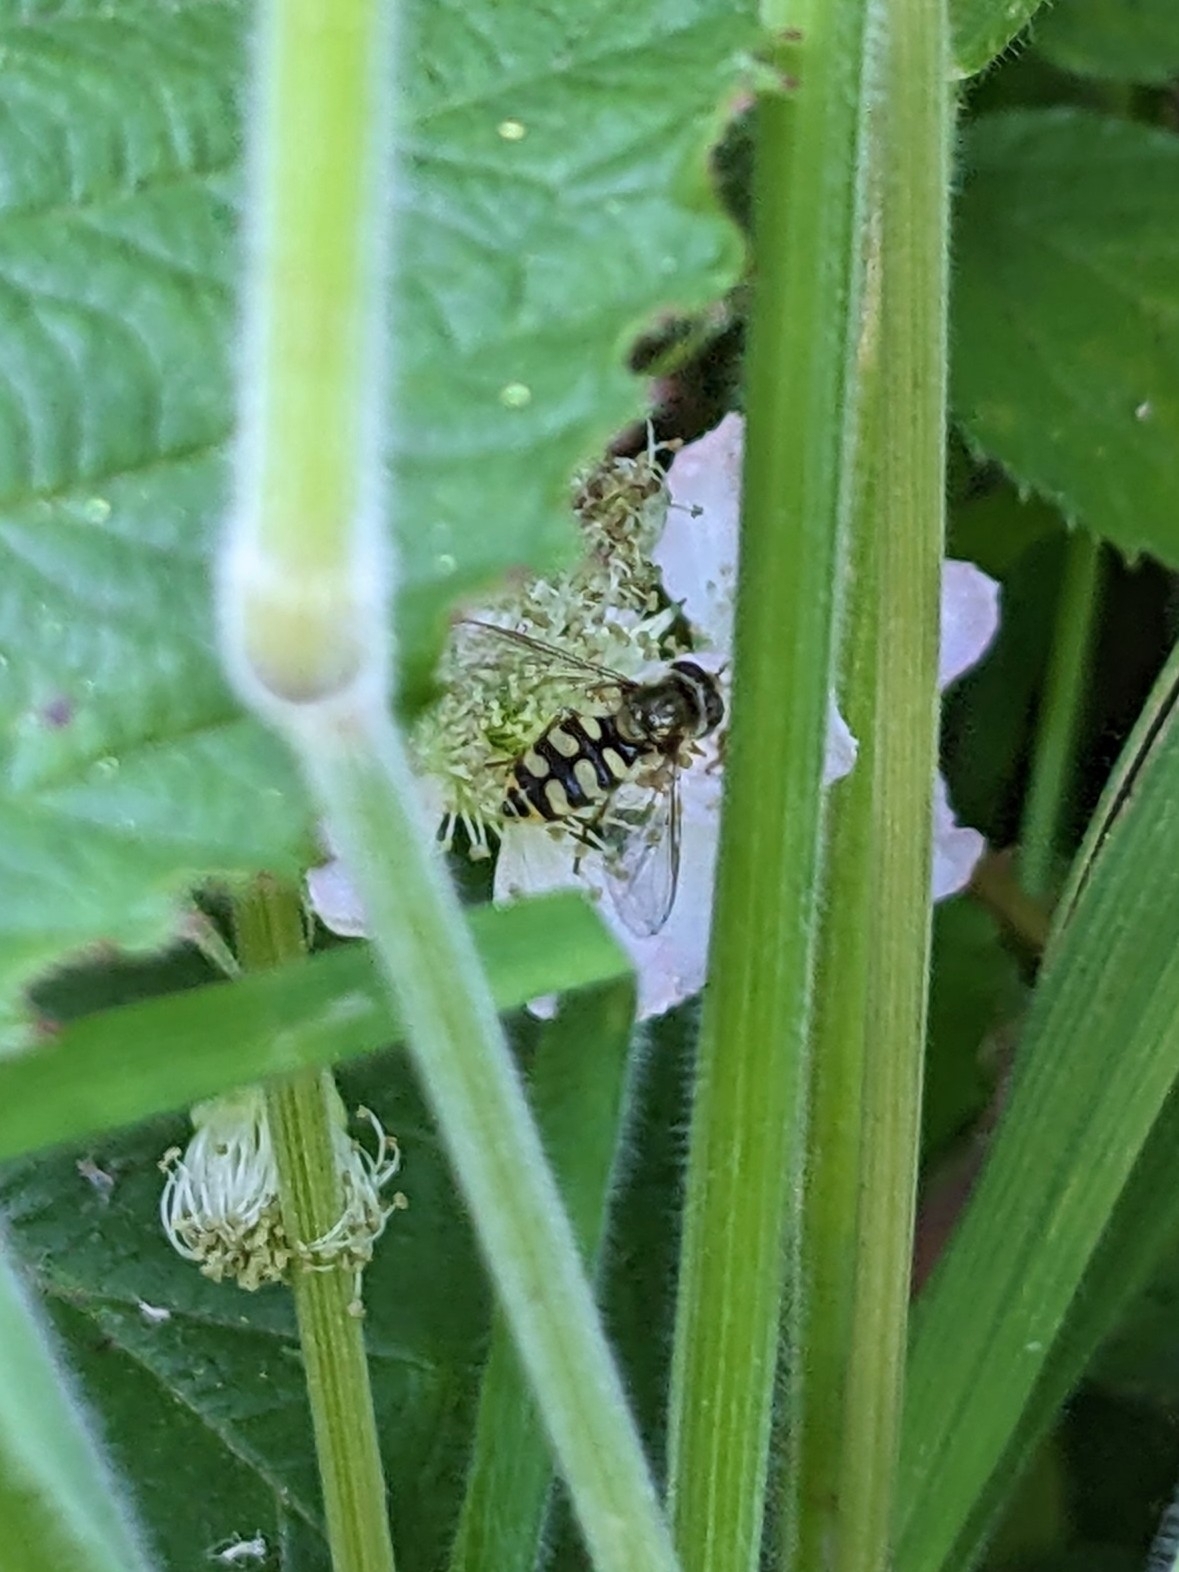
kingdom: Animalia
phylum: Arthropoda
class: Insecta
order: Diptera
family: Syrphidae
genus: Eupeodes
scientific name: Eupeodes corollae
